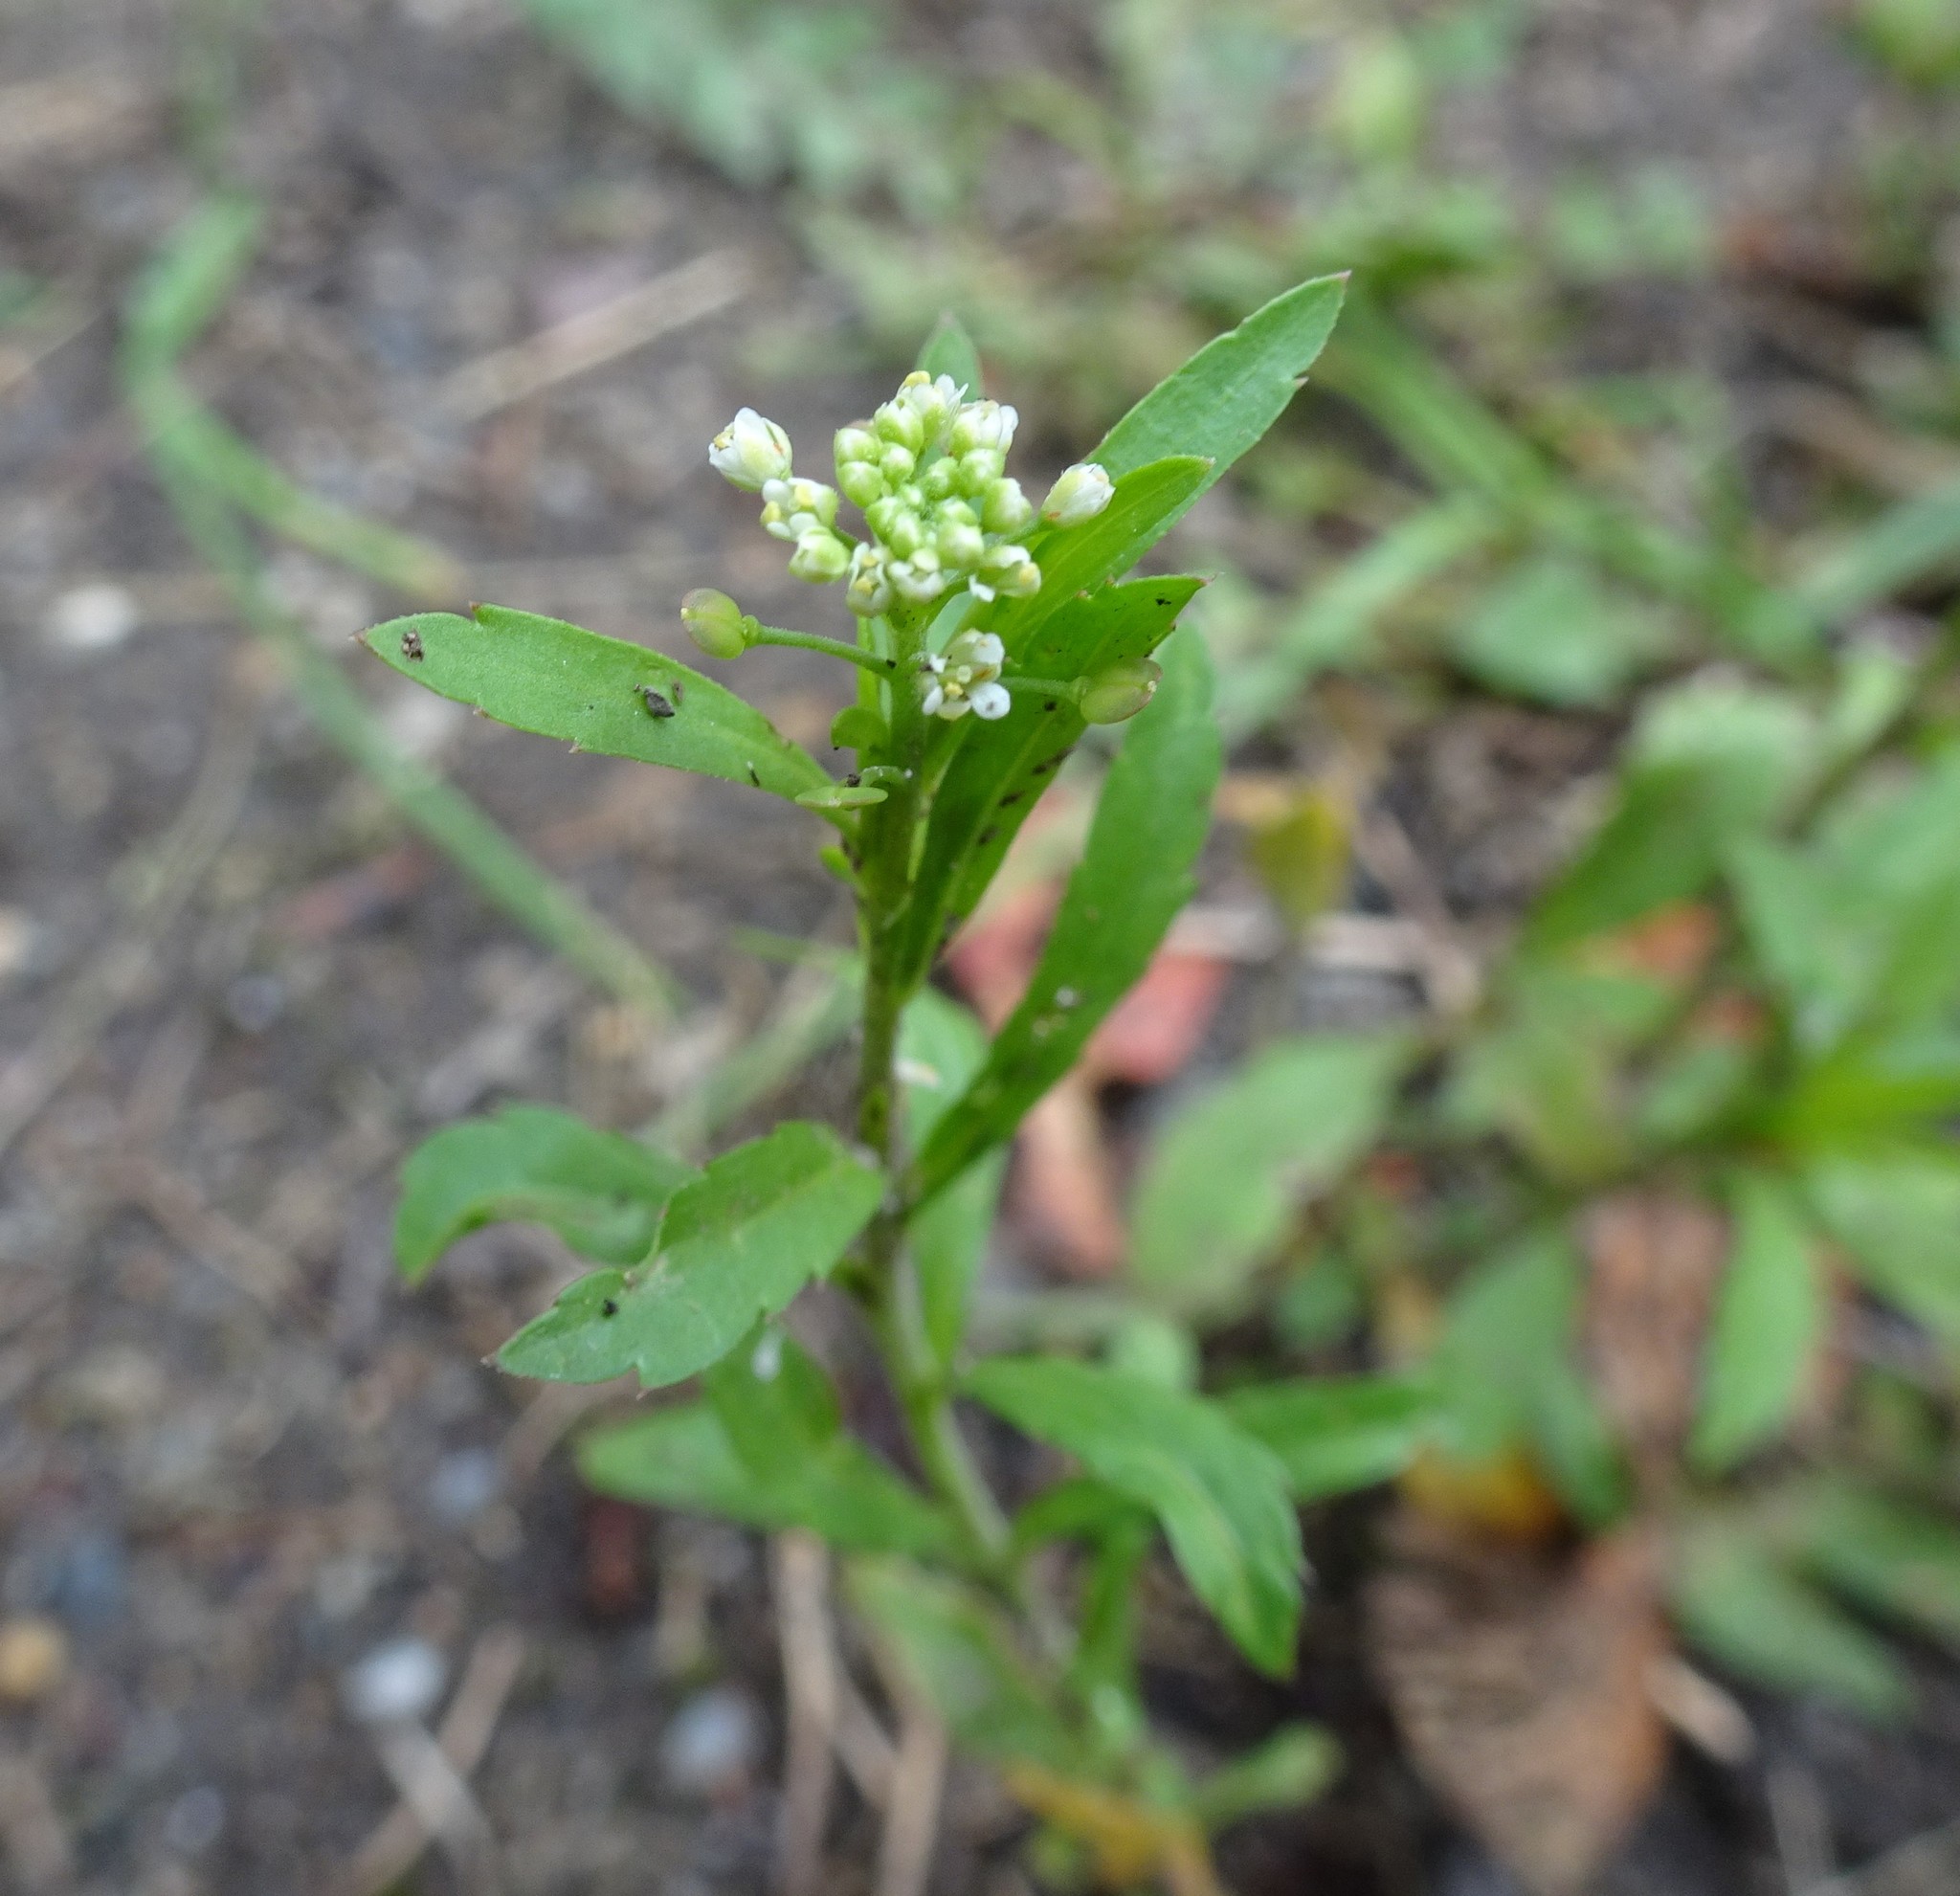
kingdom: Plantae
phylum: Tracheophyta
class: Magnoliopsida
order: Brassicales
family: Brassicaceae
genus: Lepidium
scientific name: Lepidium virginicum
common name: Least pepperwort
